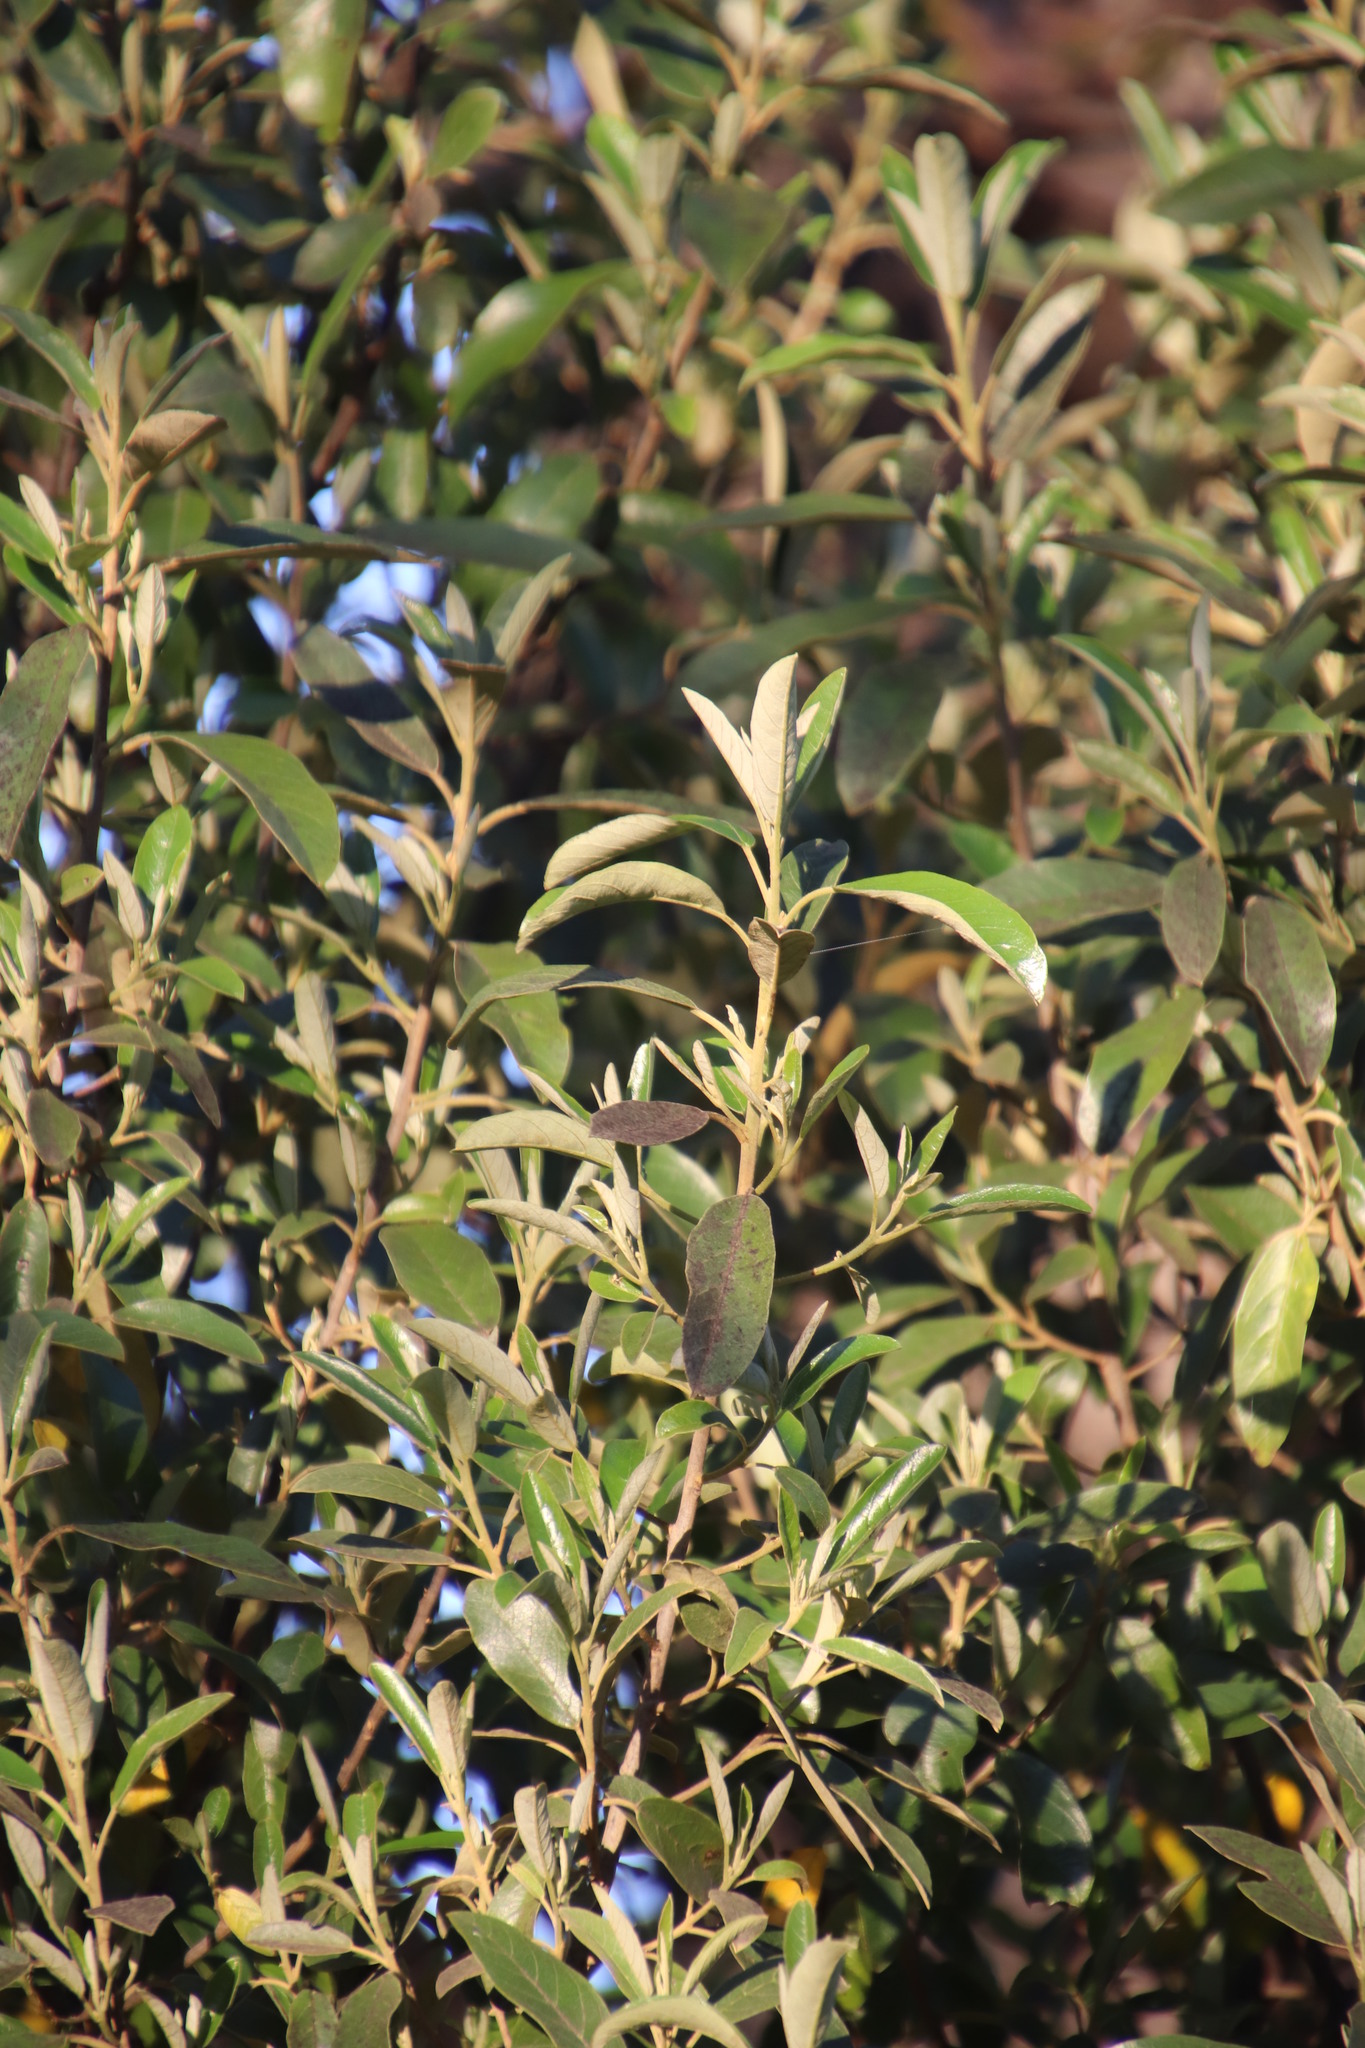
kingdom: Plantae
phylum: Tracheophyta
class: Magnoliopsida
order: Malpighiales
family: Achariaceae
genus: Kiggelaria
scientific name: Kiggelaria africana
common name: Wild peach
